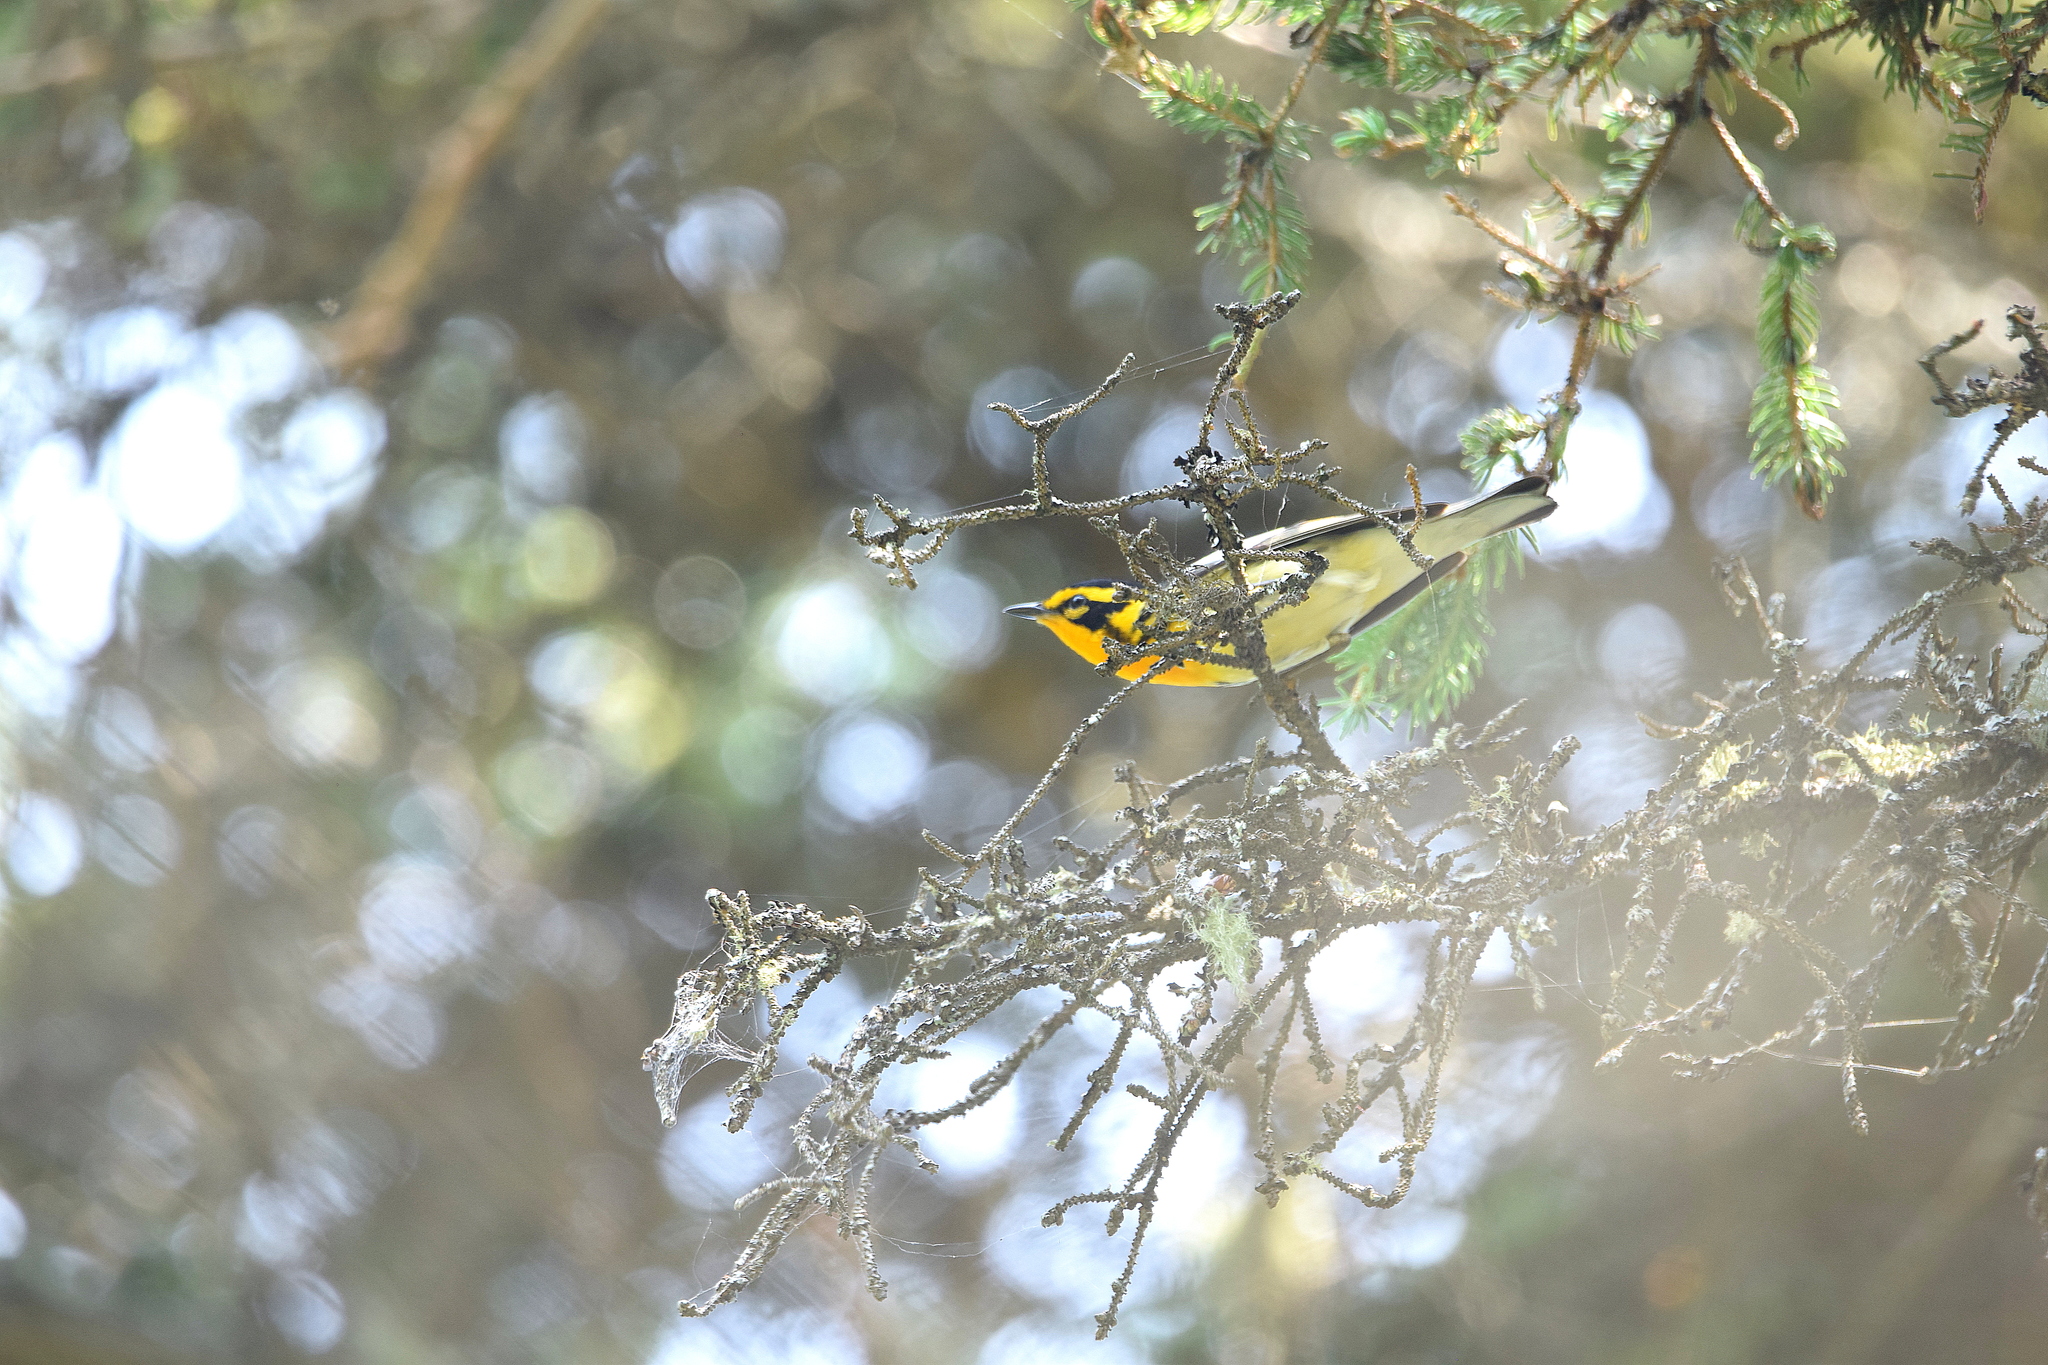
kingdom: Animalia
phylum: Chordata
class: Aves
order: Passeriformes
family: Parulidae
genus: Setophaga
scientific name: Setophaga fusca
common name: Blackburnian warbler
